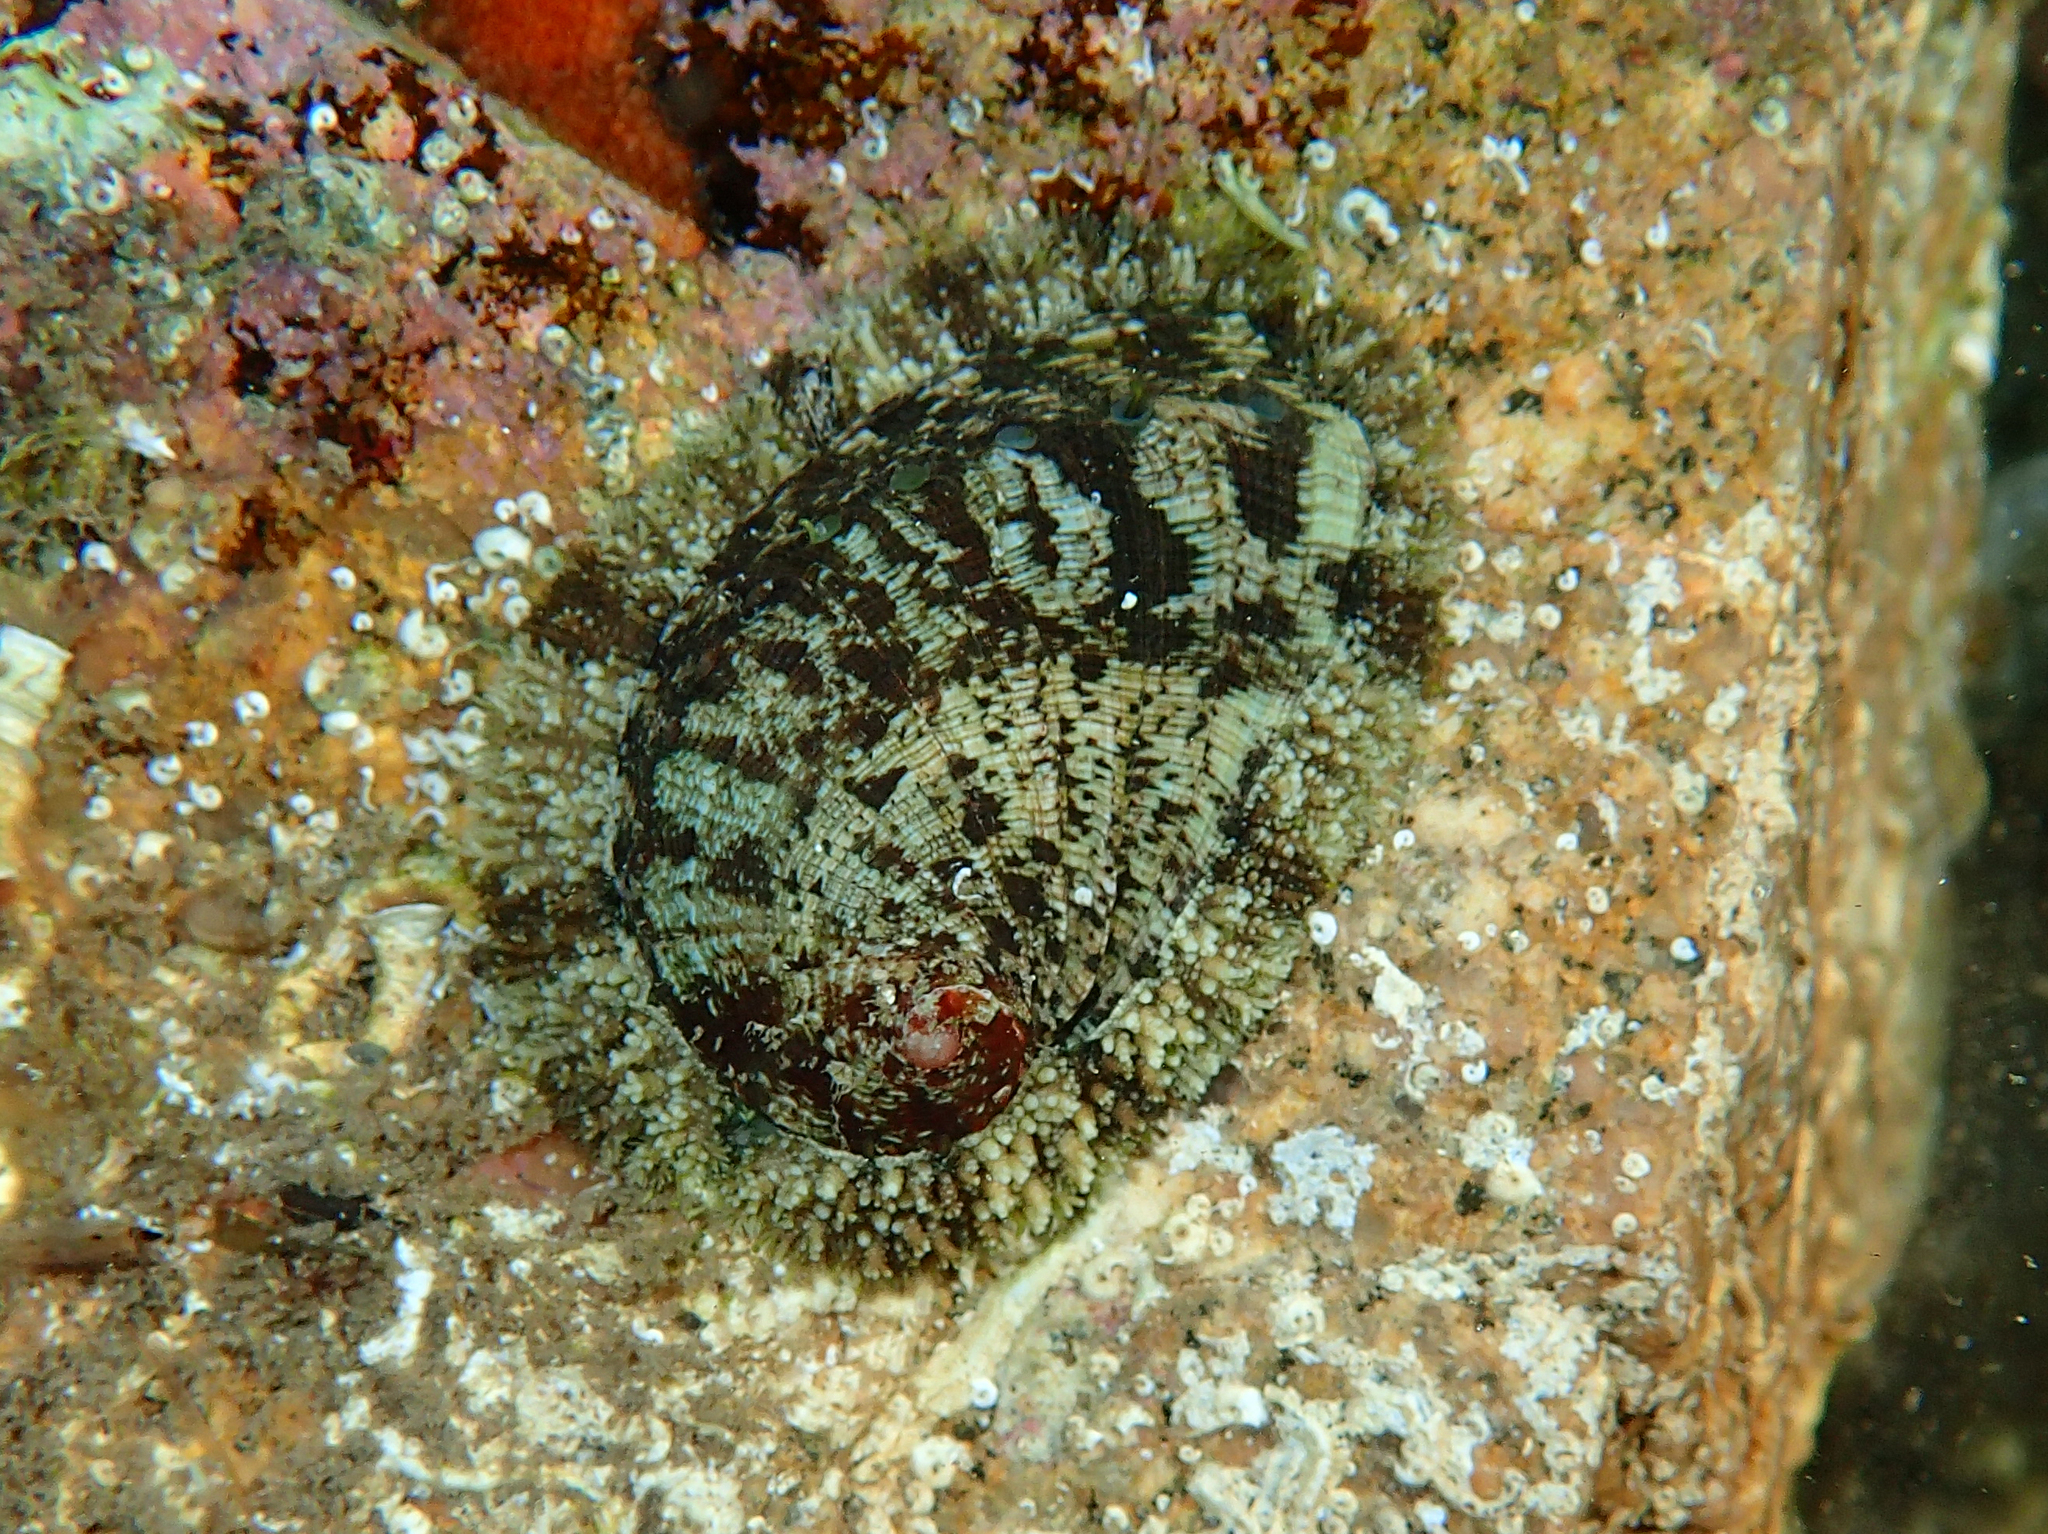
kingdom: Animalia
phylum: Mollusca
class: Gastropoda
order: Lepetellida
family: Haliotidae
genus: Haliotis
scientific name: Haliotis tuberculata
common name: Green ormer
